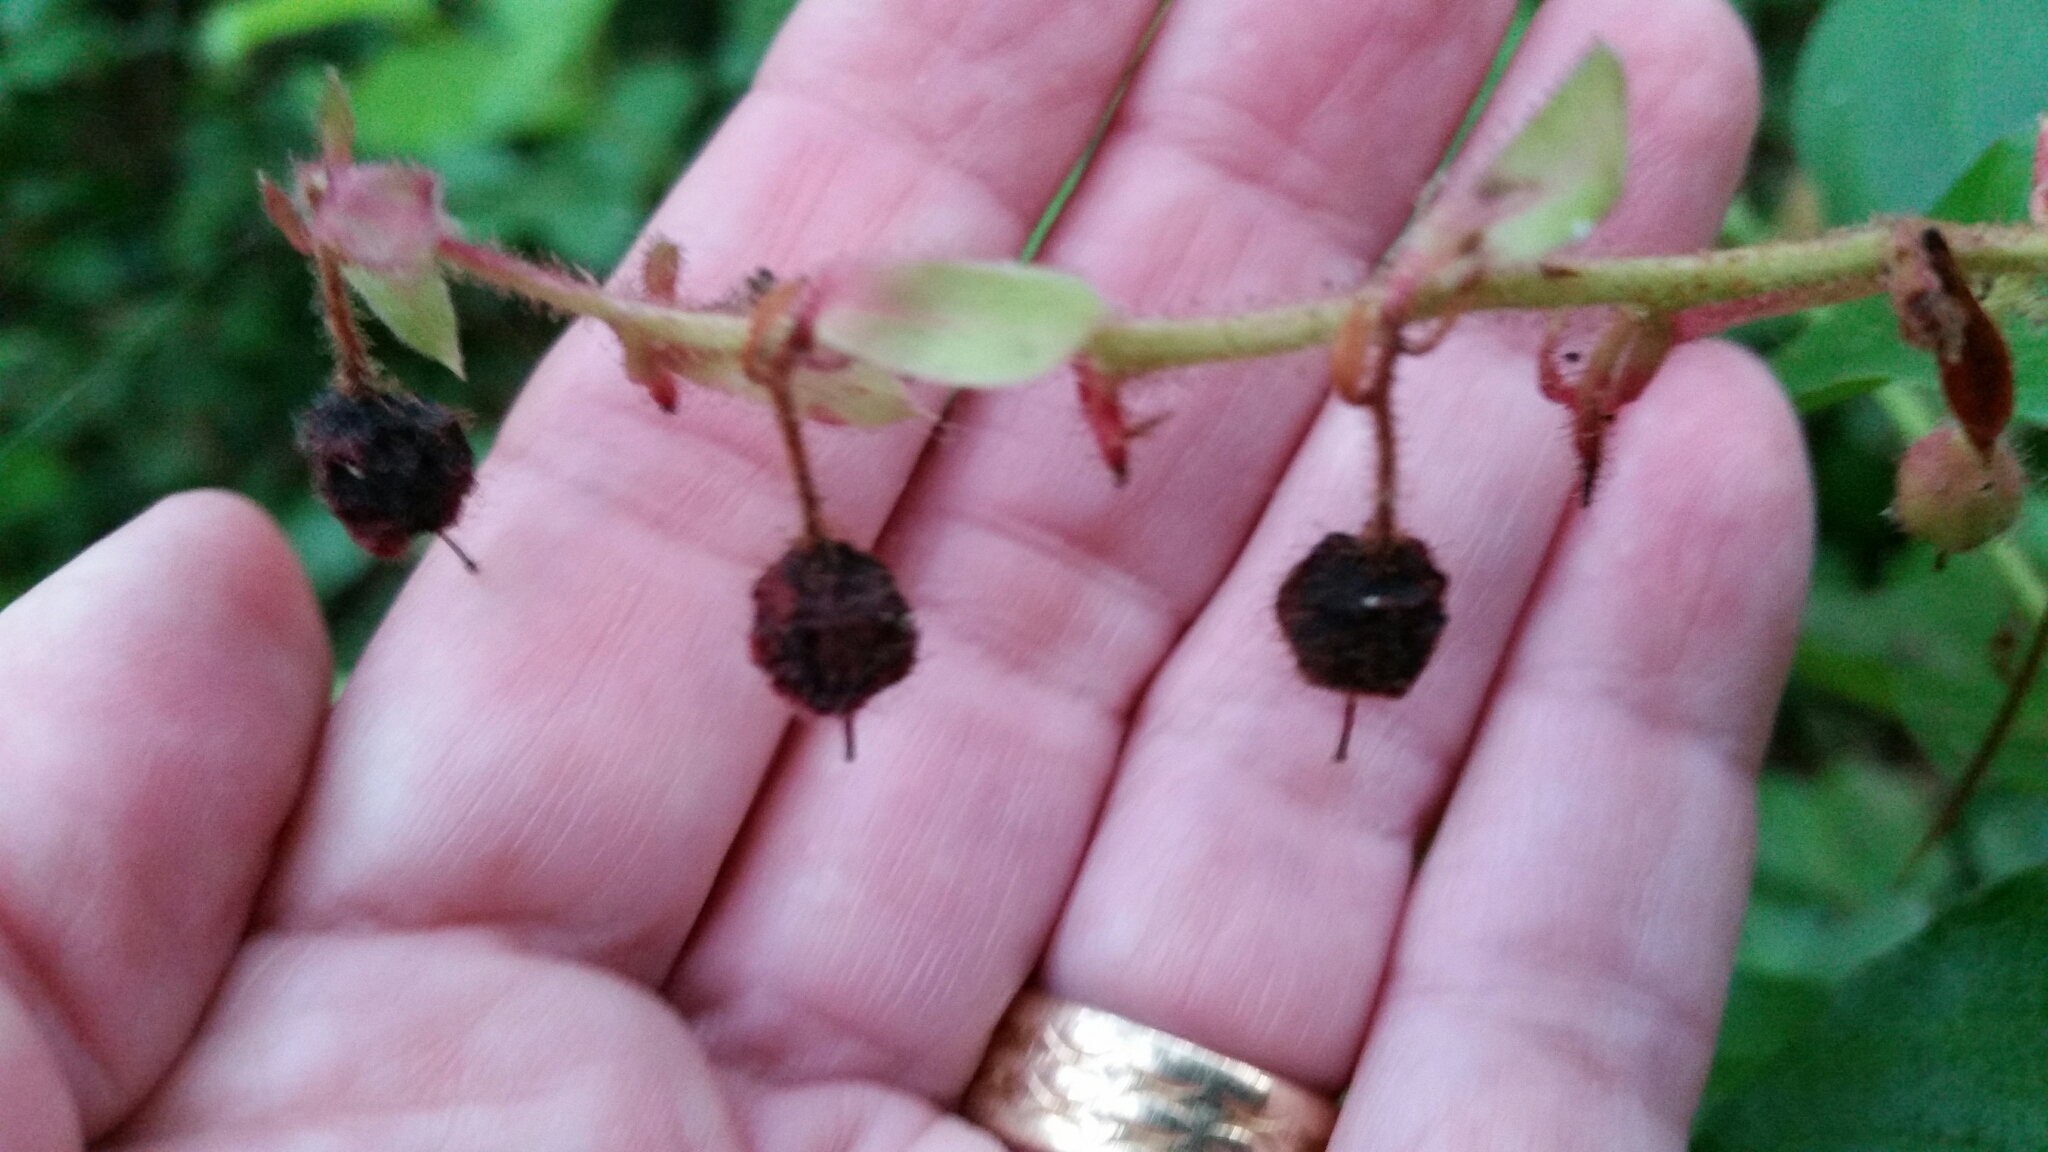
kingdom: Plantae
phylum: Tracheophyta
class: Magnoliopsida
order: Ericales
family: Ericaceae
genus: Gaultheria
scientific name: Gaultheria shallon
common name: Shallon
